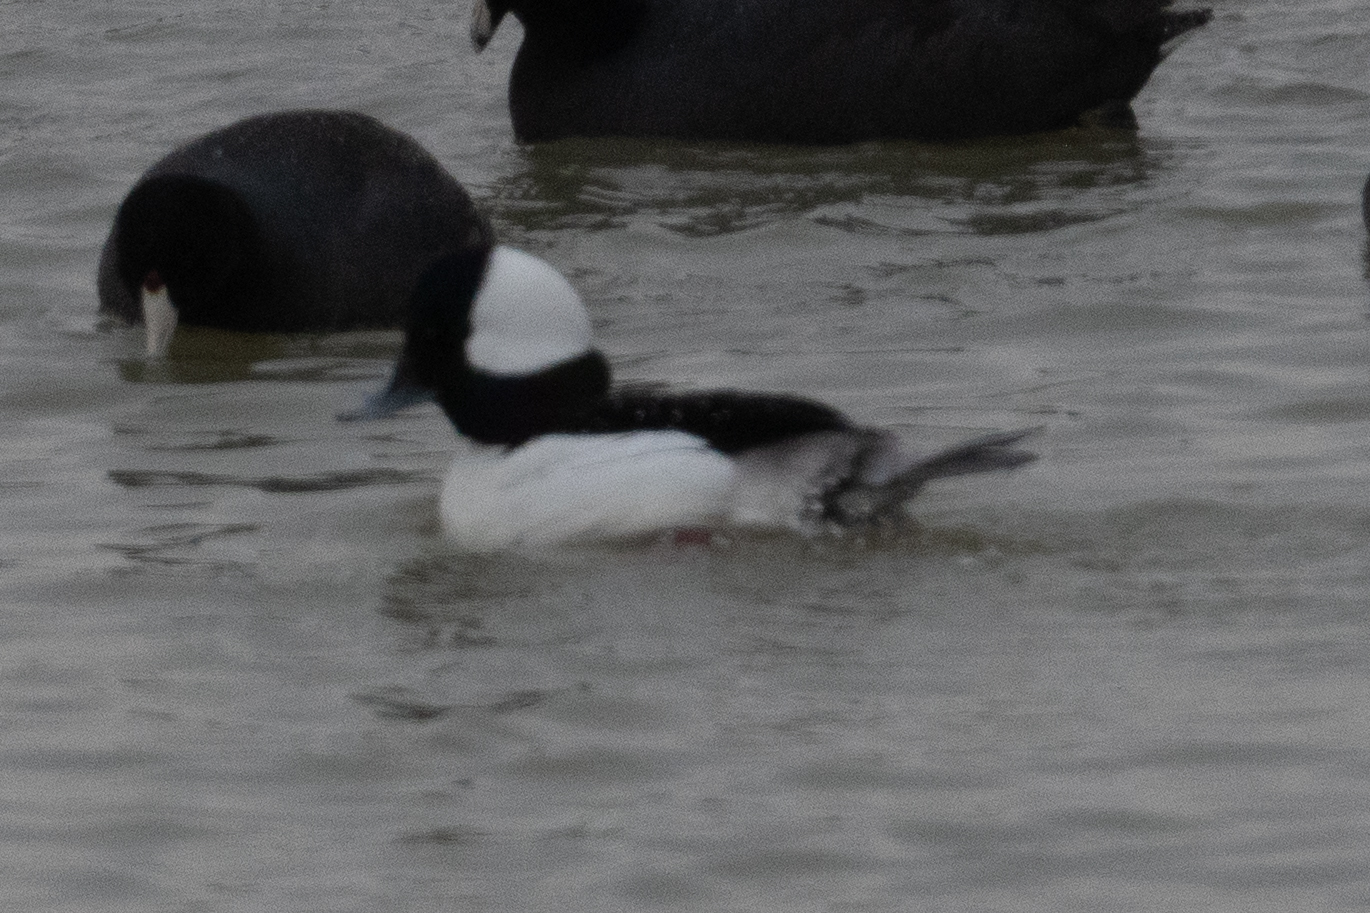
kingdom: Animalia
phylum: Chordata
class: Aves
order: Anseriformes
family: Anatidae
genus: Bucephala
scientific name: Bucephala albeola
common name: Bufflehead
